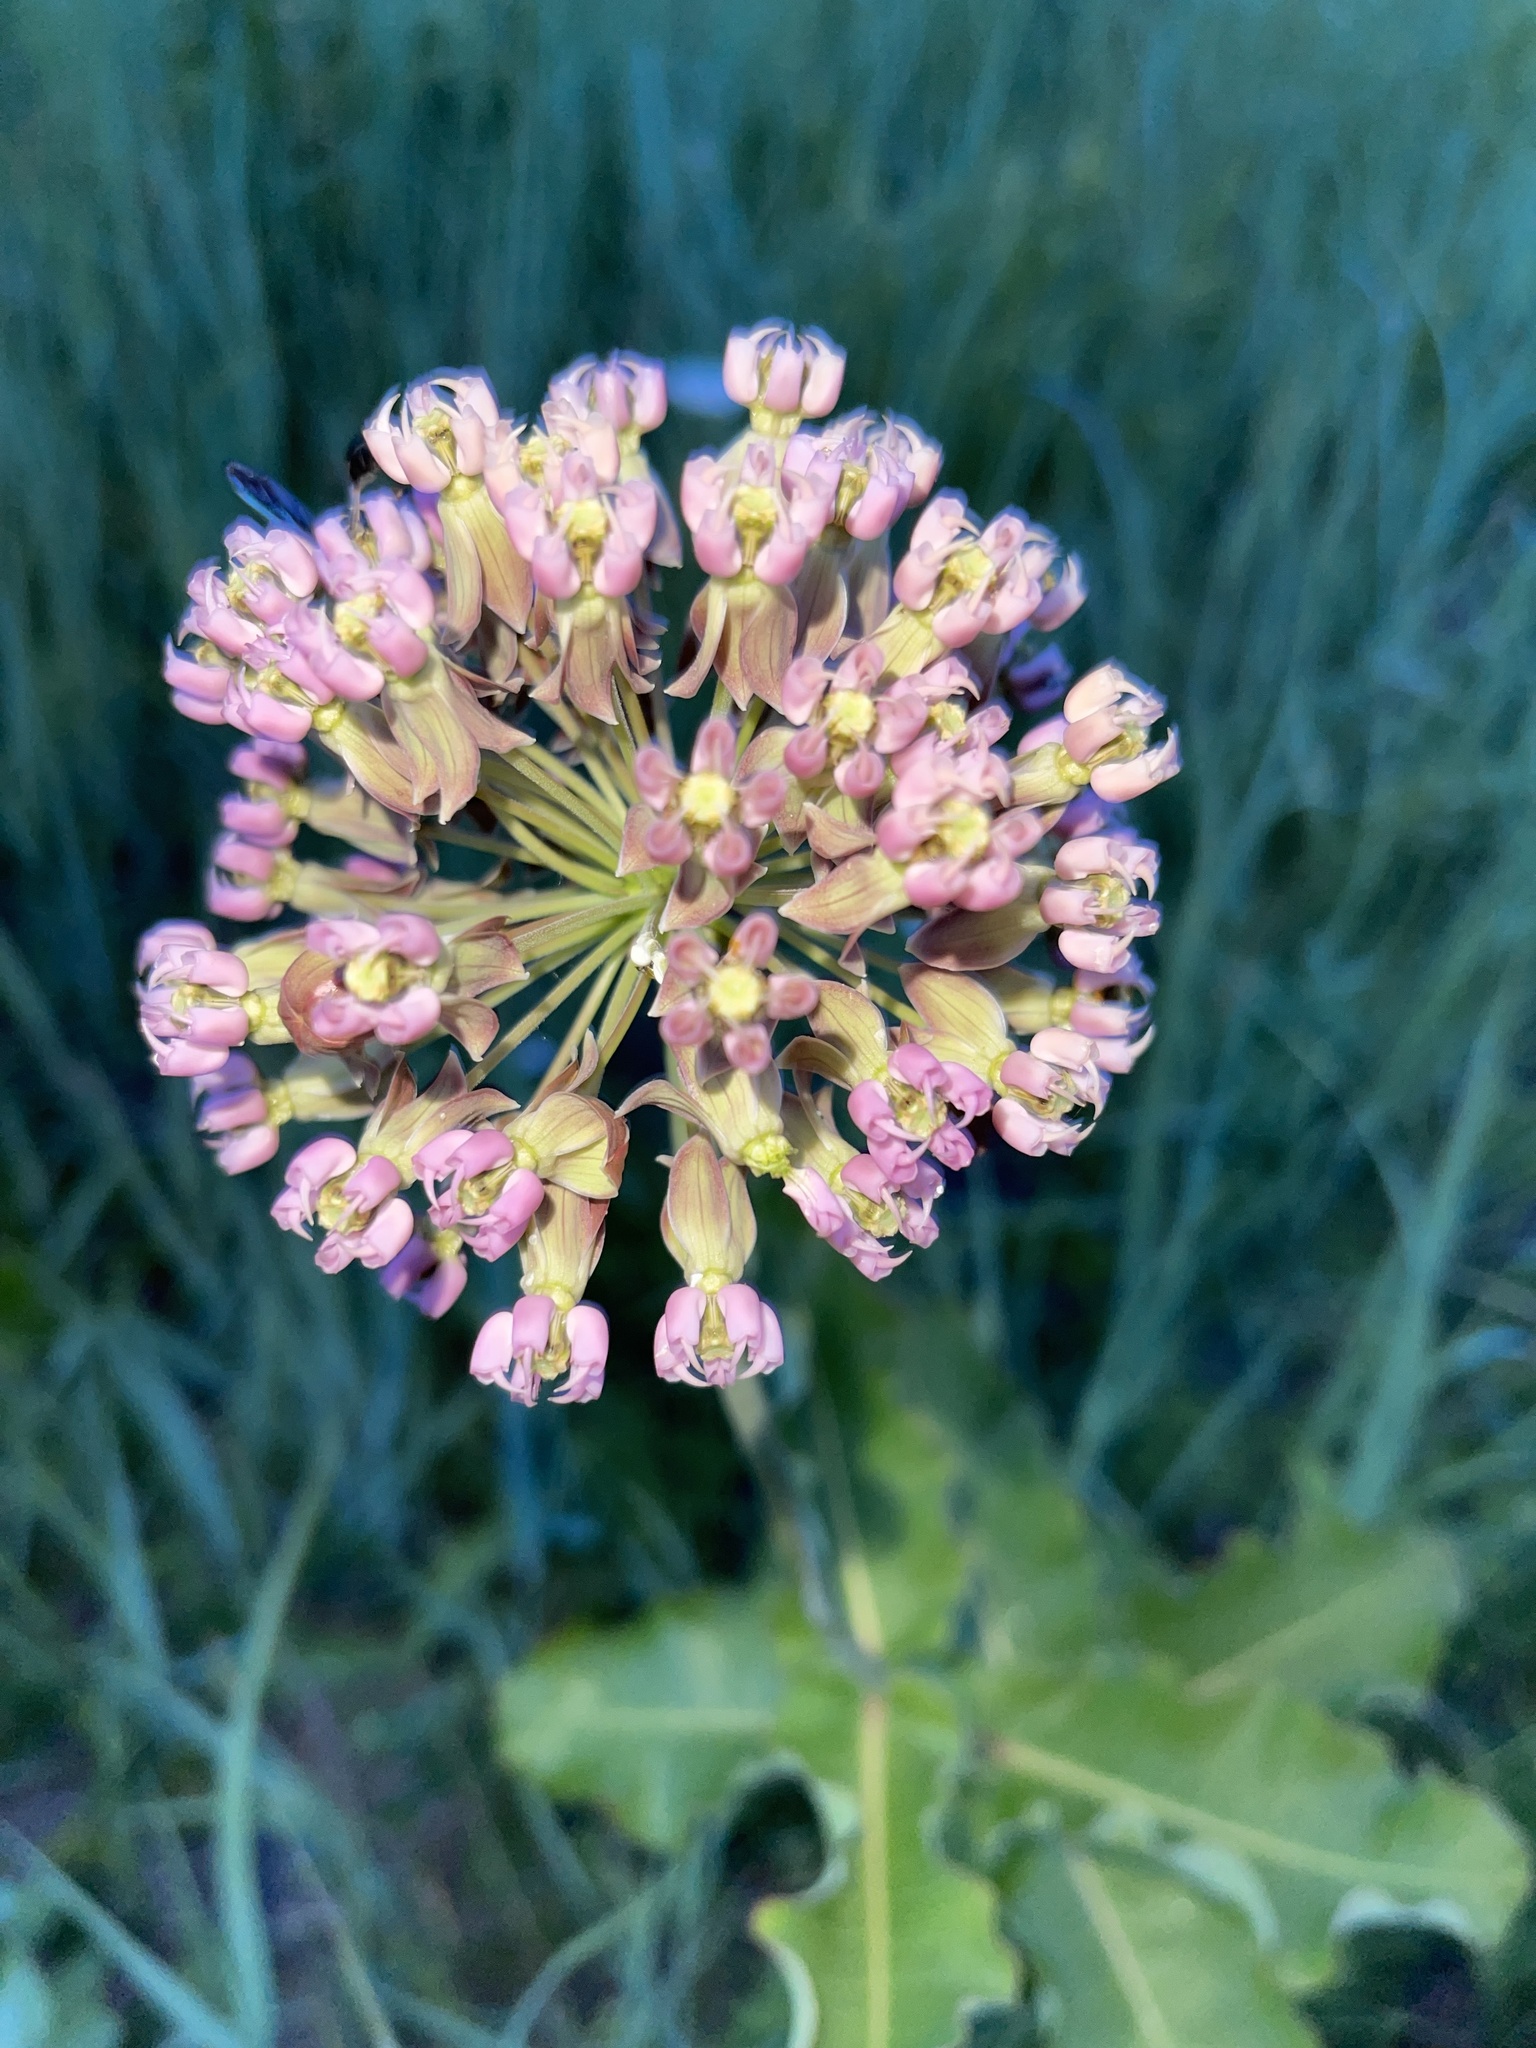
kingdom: Plantae
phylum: Tracheophyta
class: Magnoliopsida
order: Gentianales
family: Apocynaceae
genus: Asclepias
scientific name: Asclepias amplexicaulis
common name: Blunt-leaf milkweed
